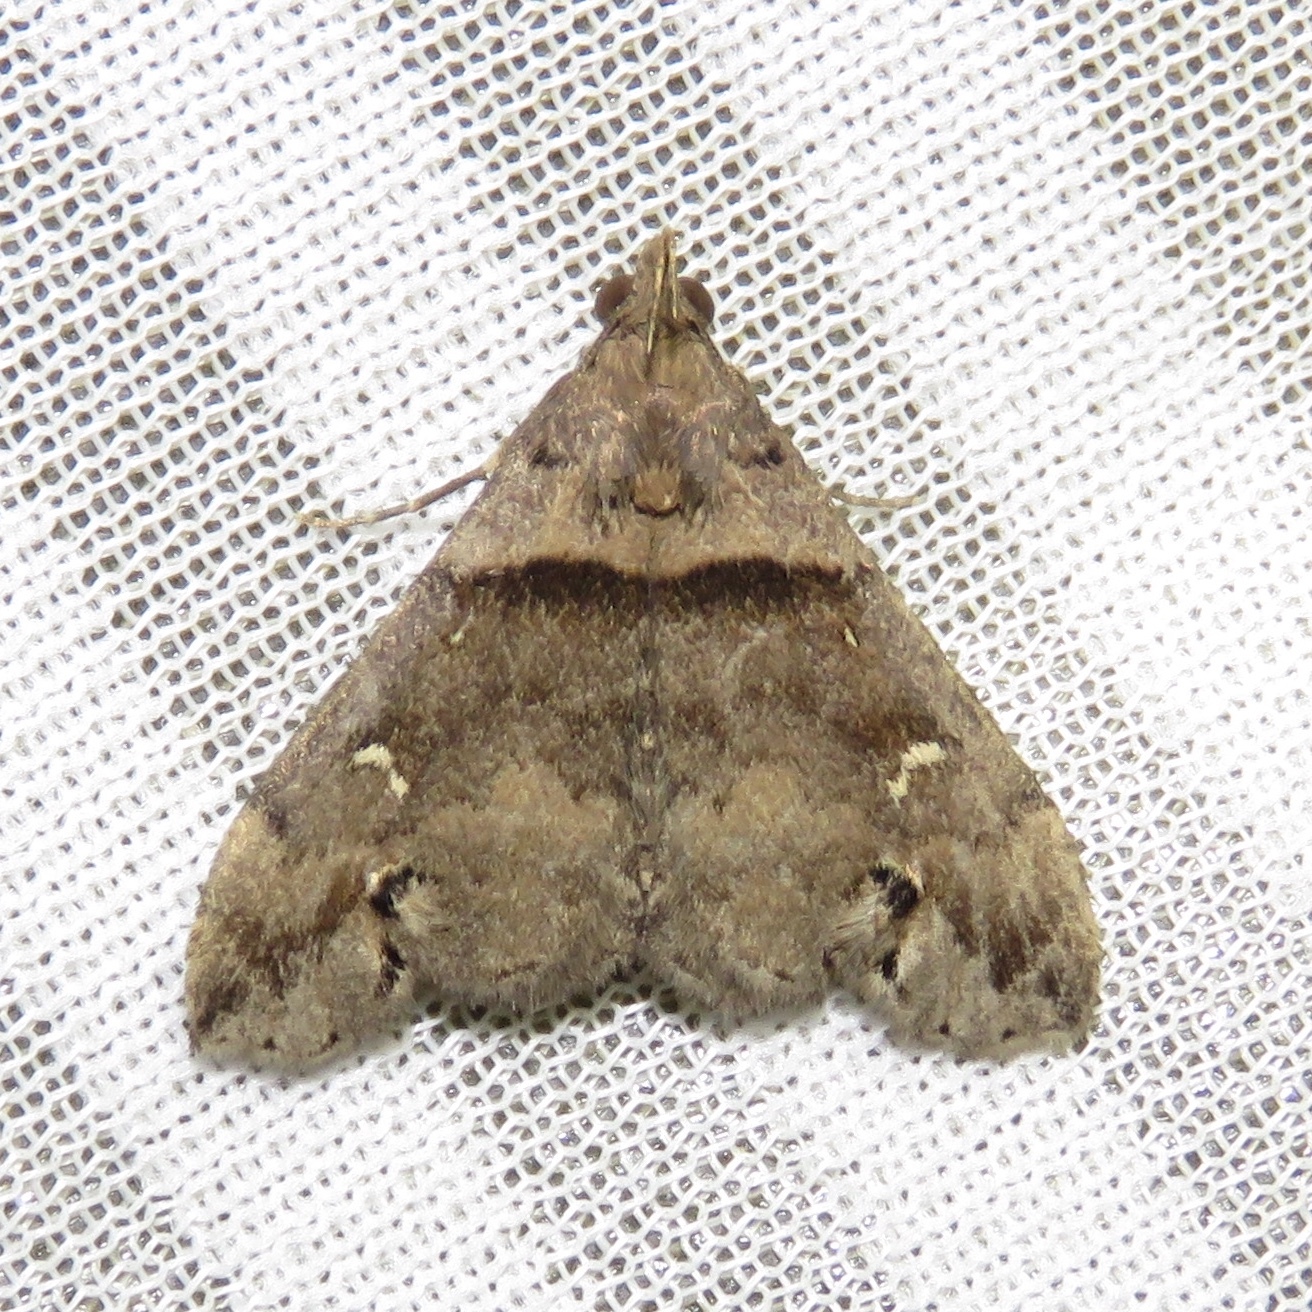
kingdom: Animalia
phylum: Arthropoda
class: Insecta
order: Lepidoptera
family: Erebidae
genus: Lascoria
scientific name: Lascoria ambigualis
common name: Ambiguous moth
